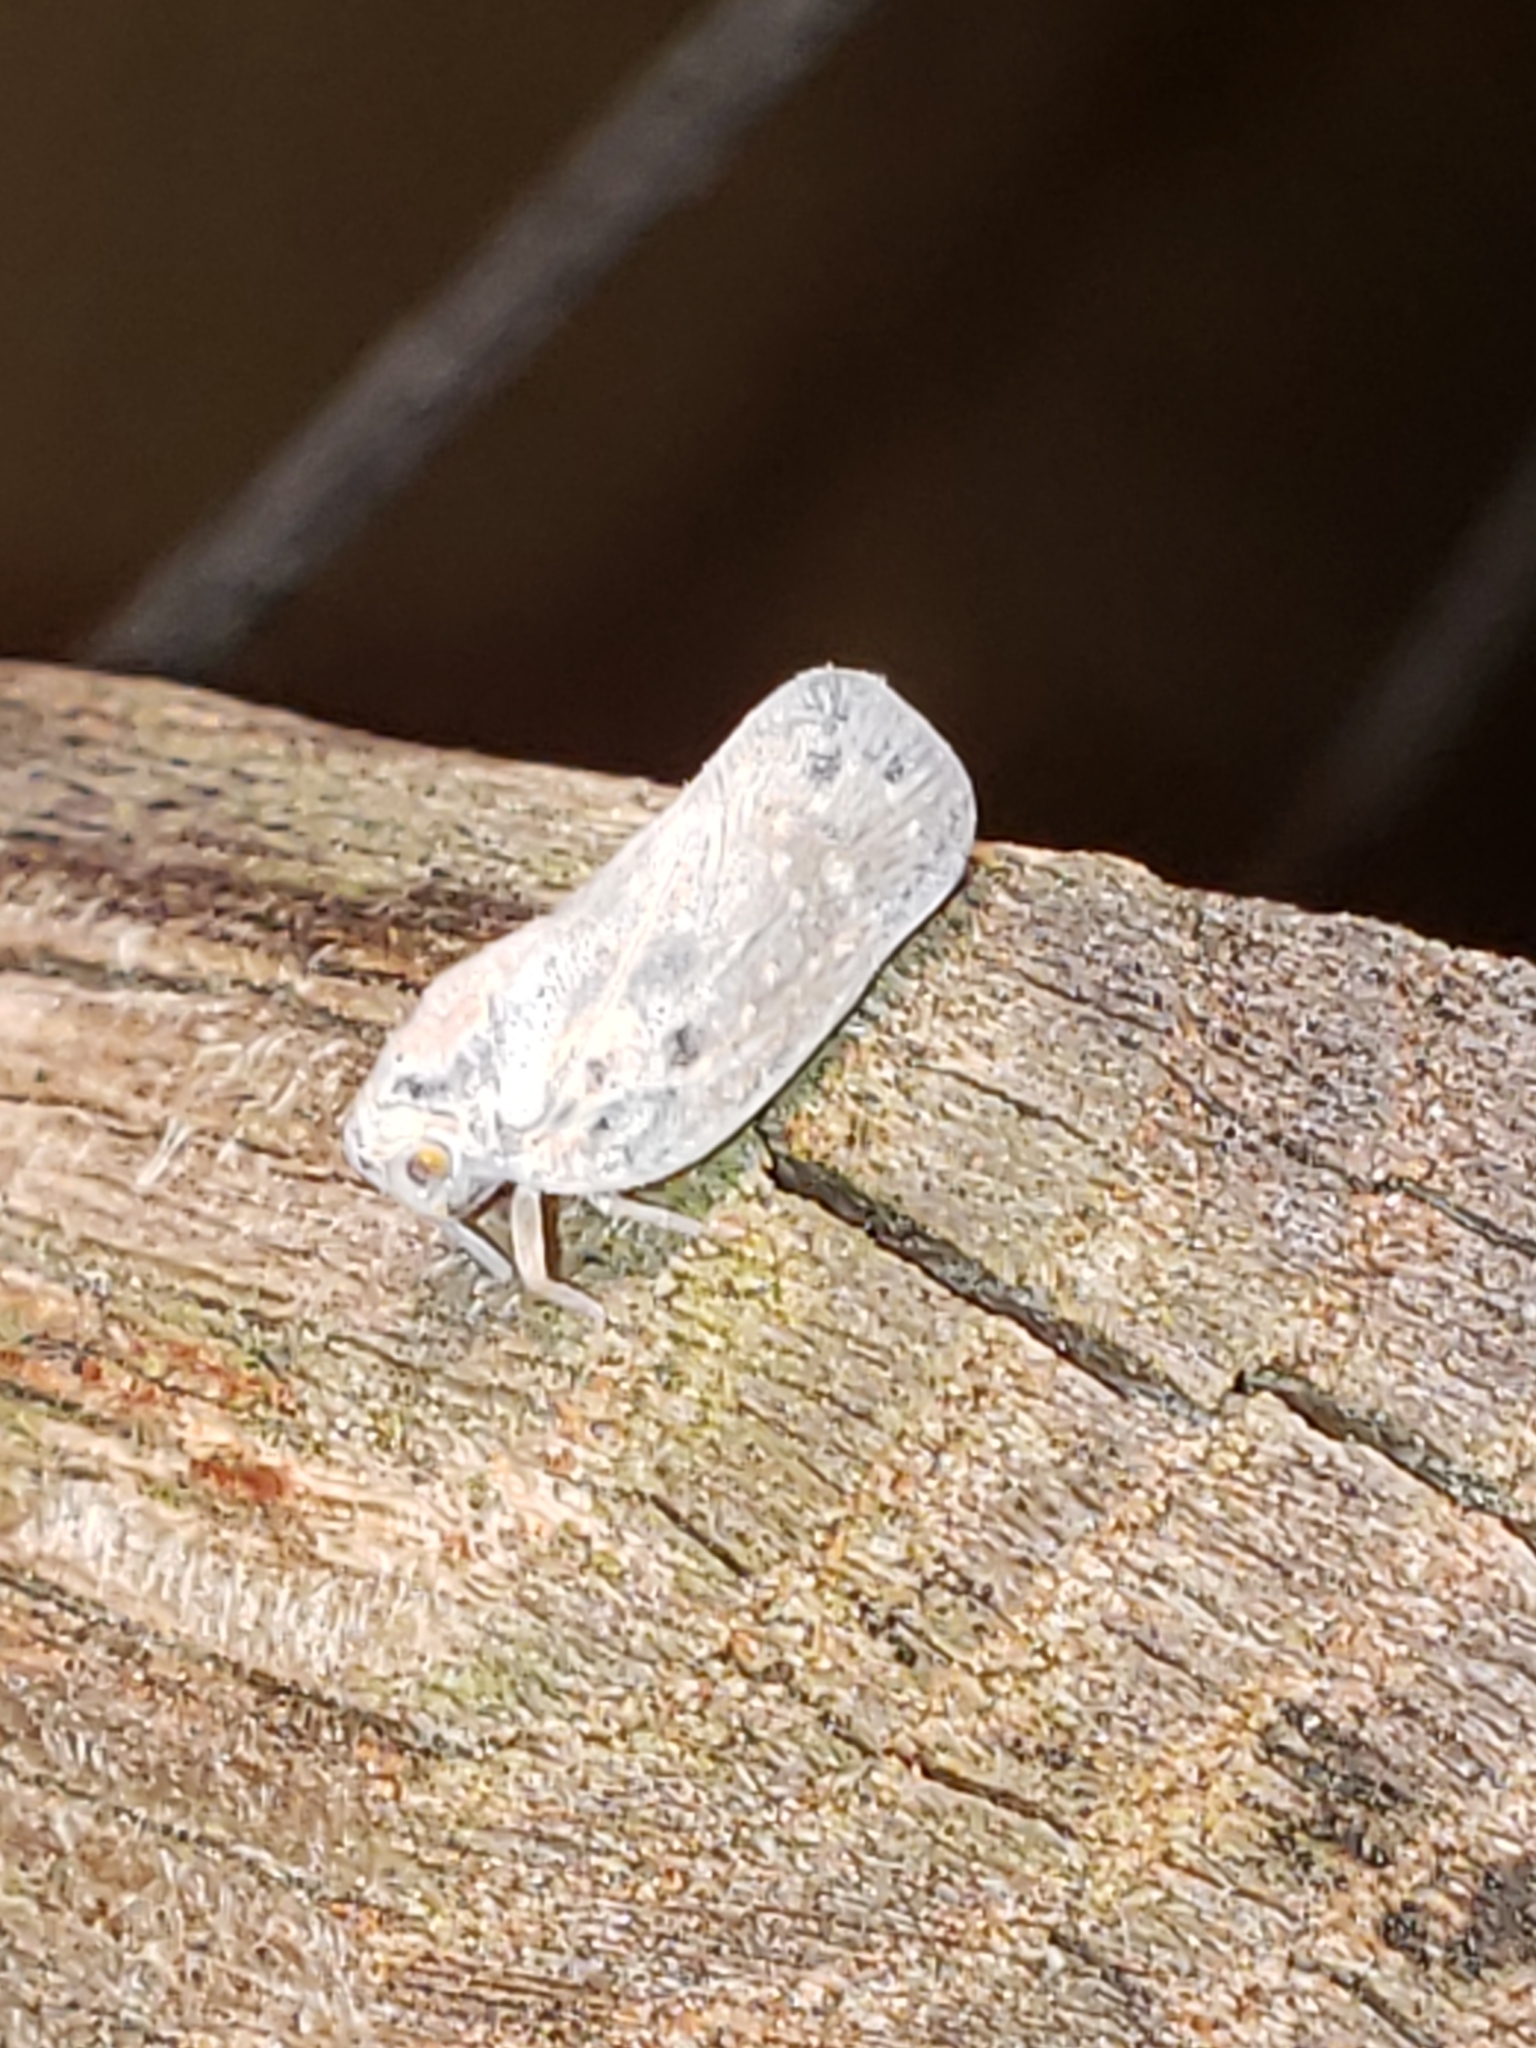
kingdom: Animalia
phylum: Arthropoda
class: Insecta
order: Hemiptera
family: Flatidae
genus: Metcalfa
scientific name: Metcalfa pruinosa
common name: Citrus flatid planthopper
